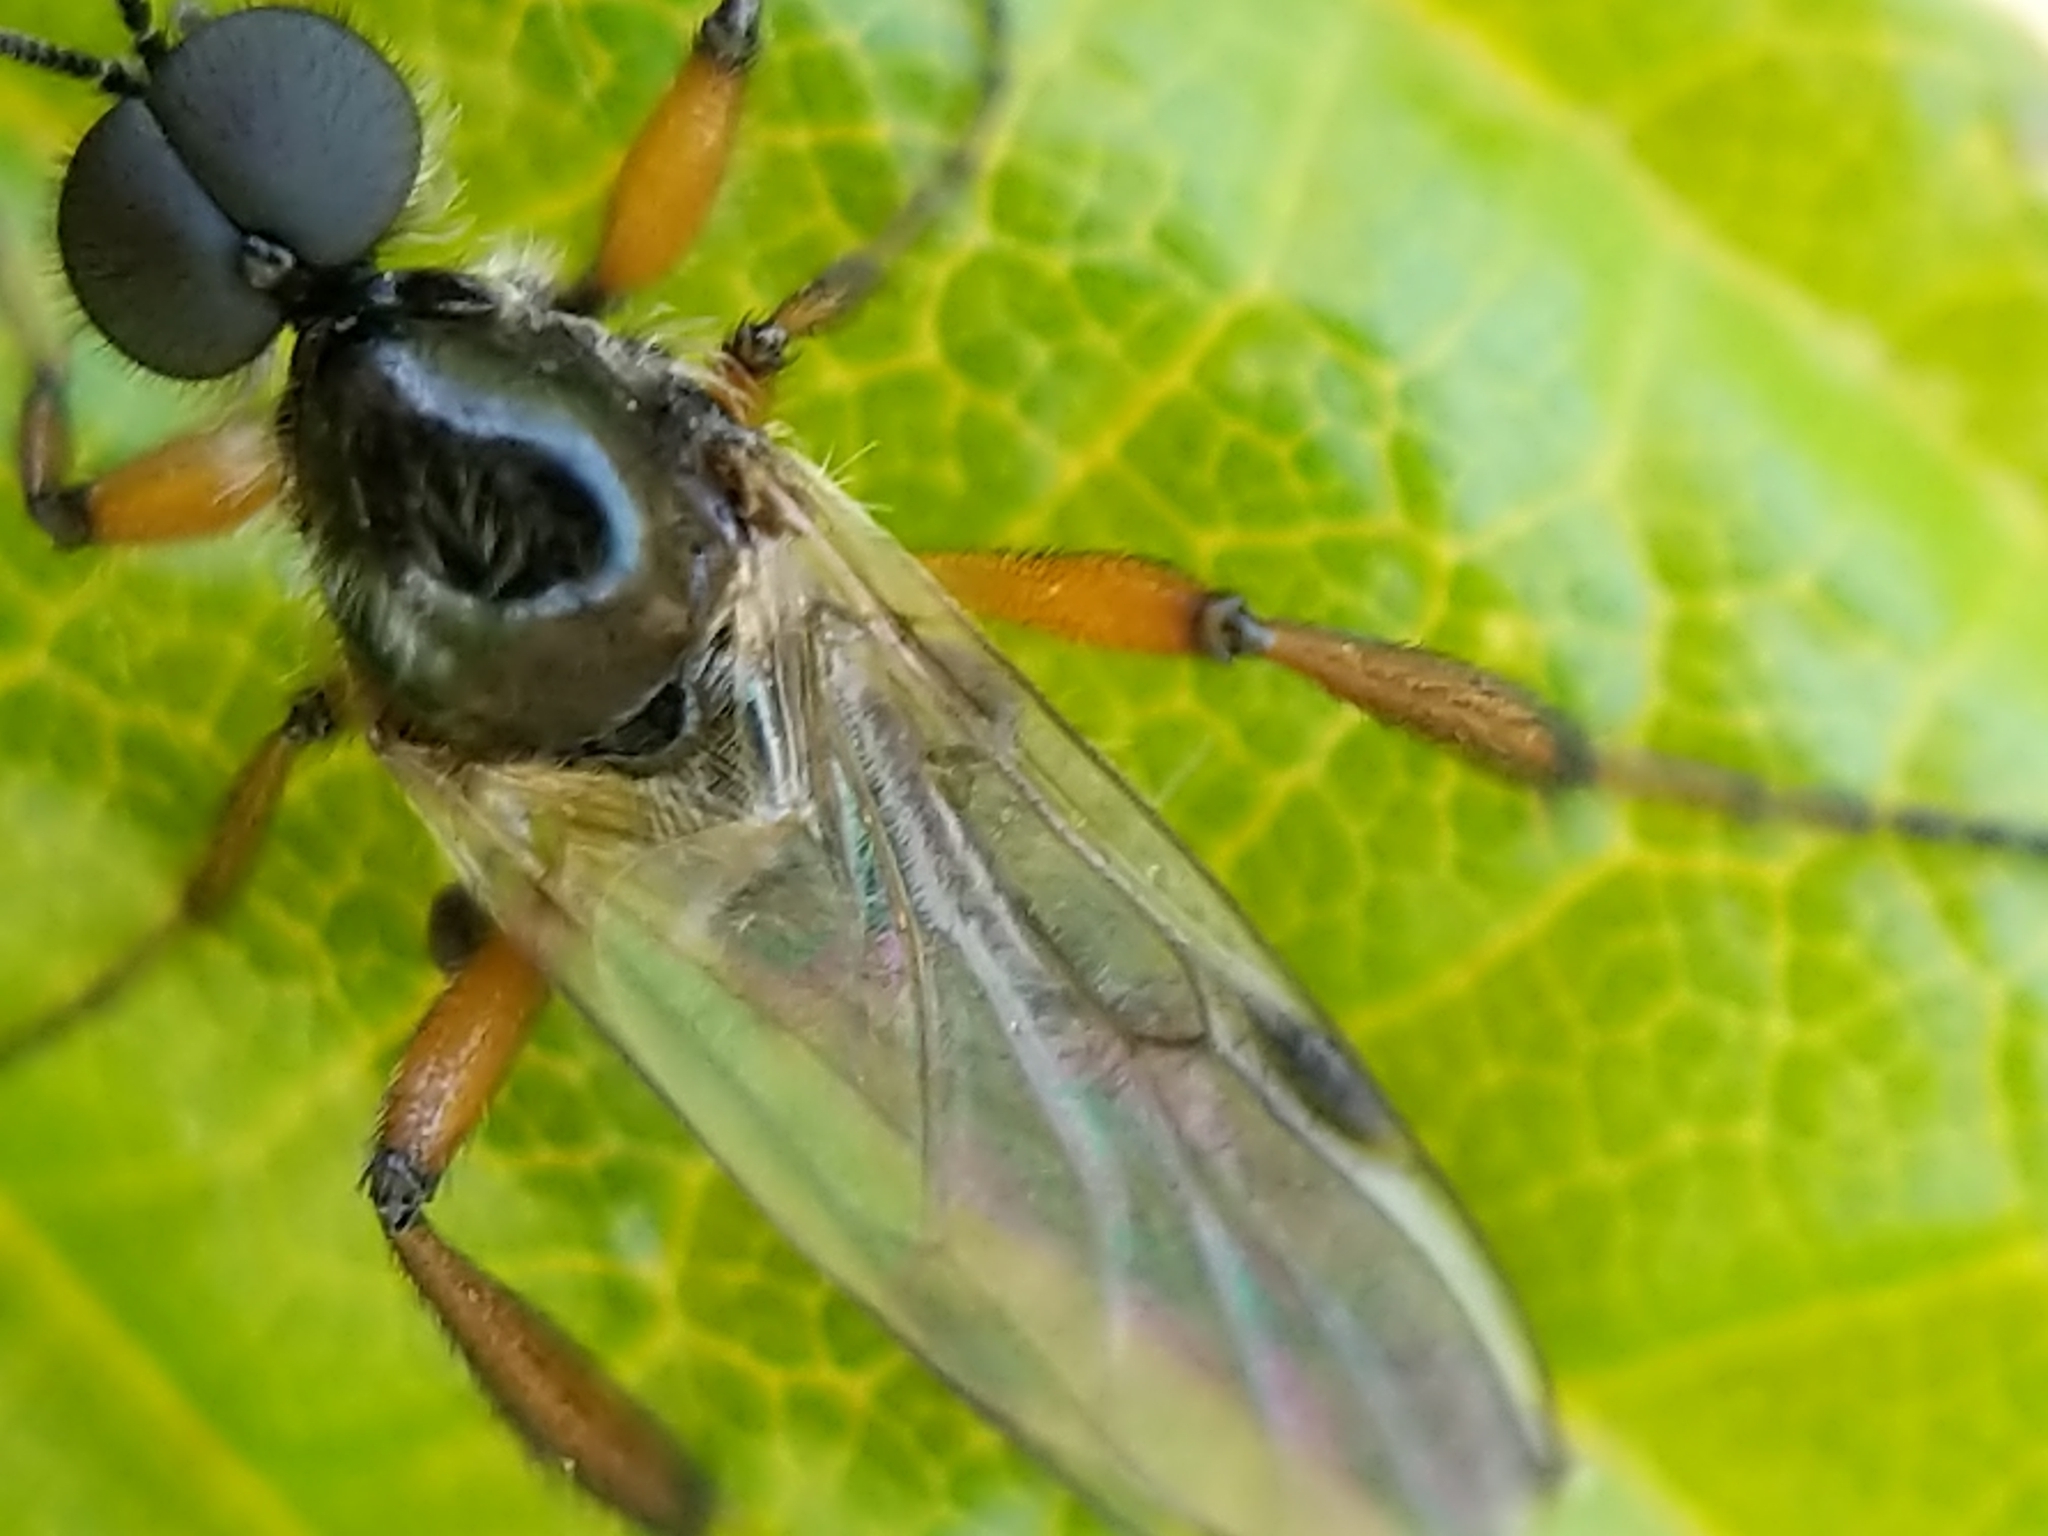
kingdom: Animalia
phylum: Arthropoda
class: Insecta
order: Diptera
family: Bibionidae
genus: Bibio
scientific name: Bibio articulatus
